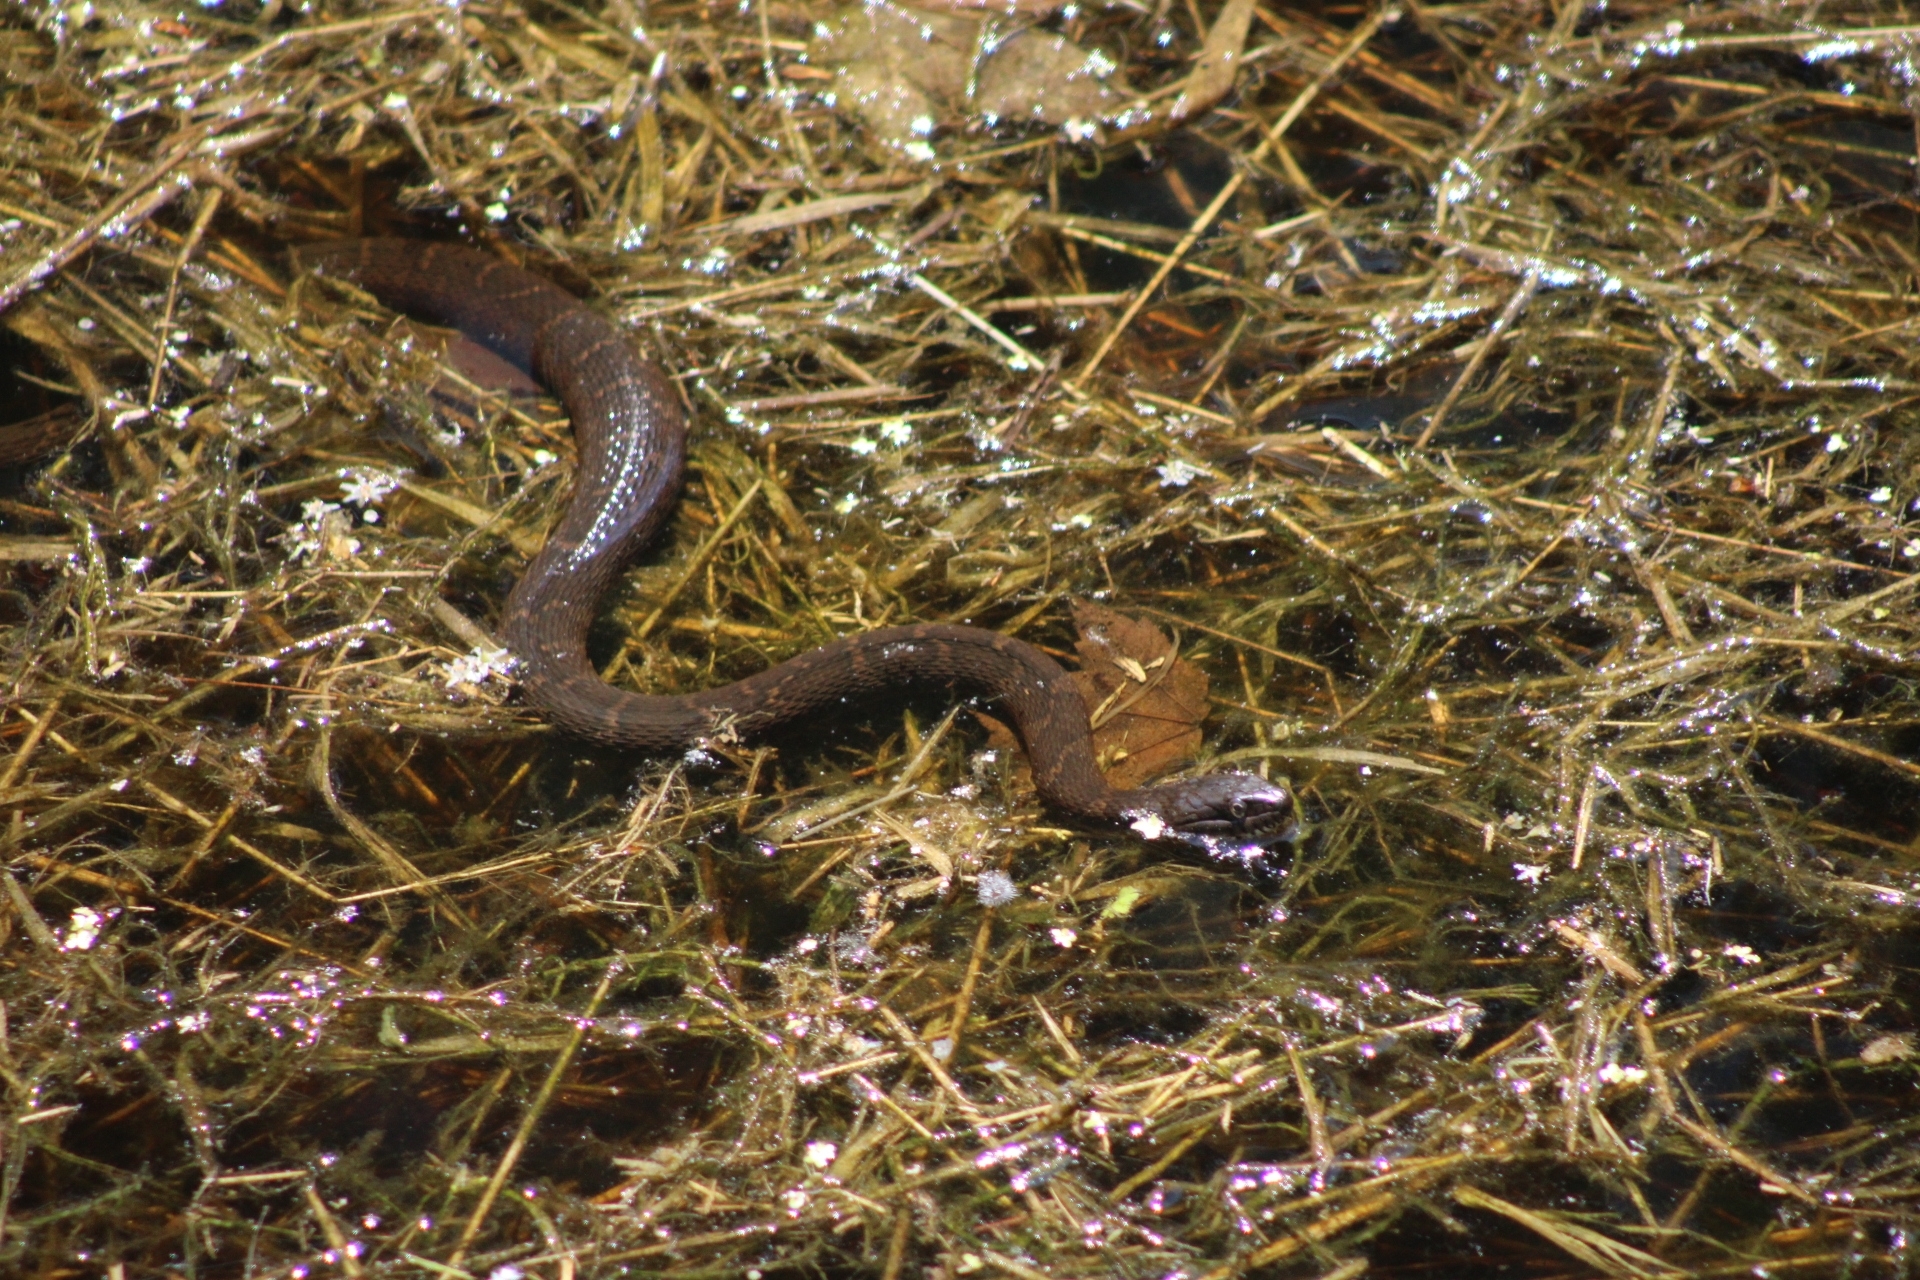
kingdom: Animalia
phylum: Chordata
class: Squamata
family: Colubridae
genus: Nerodia
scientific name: Nerodia sipedon
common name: Northern water snake
